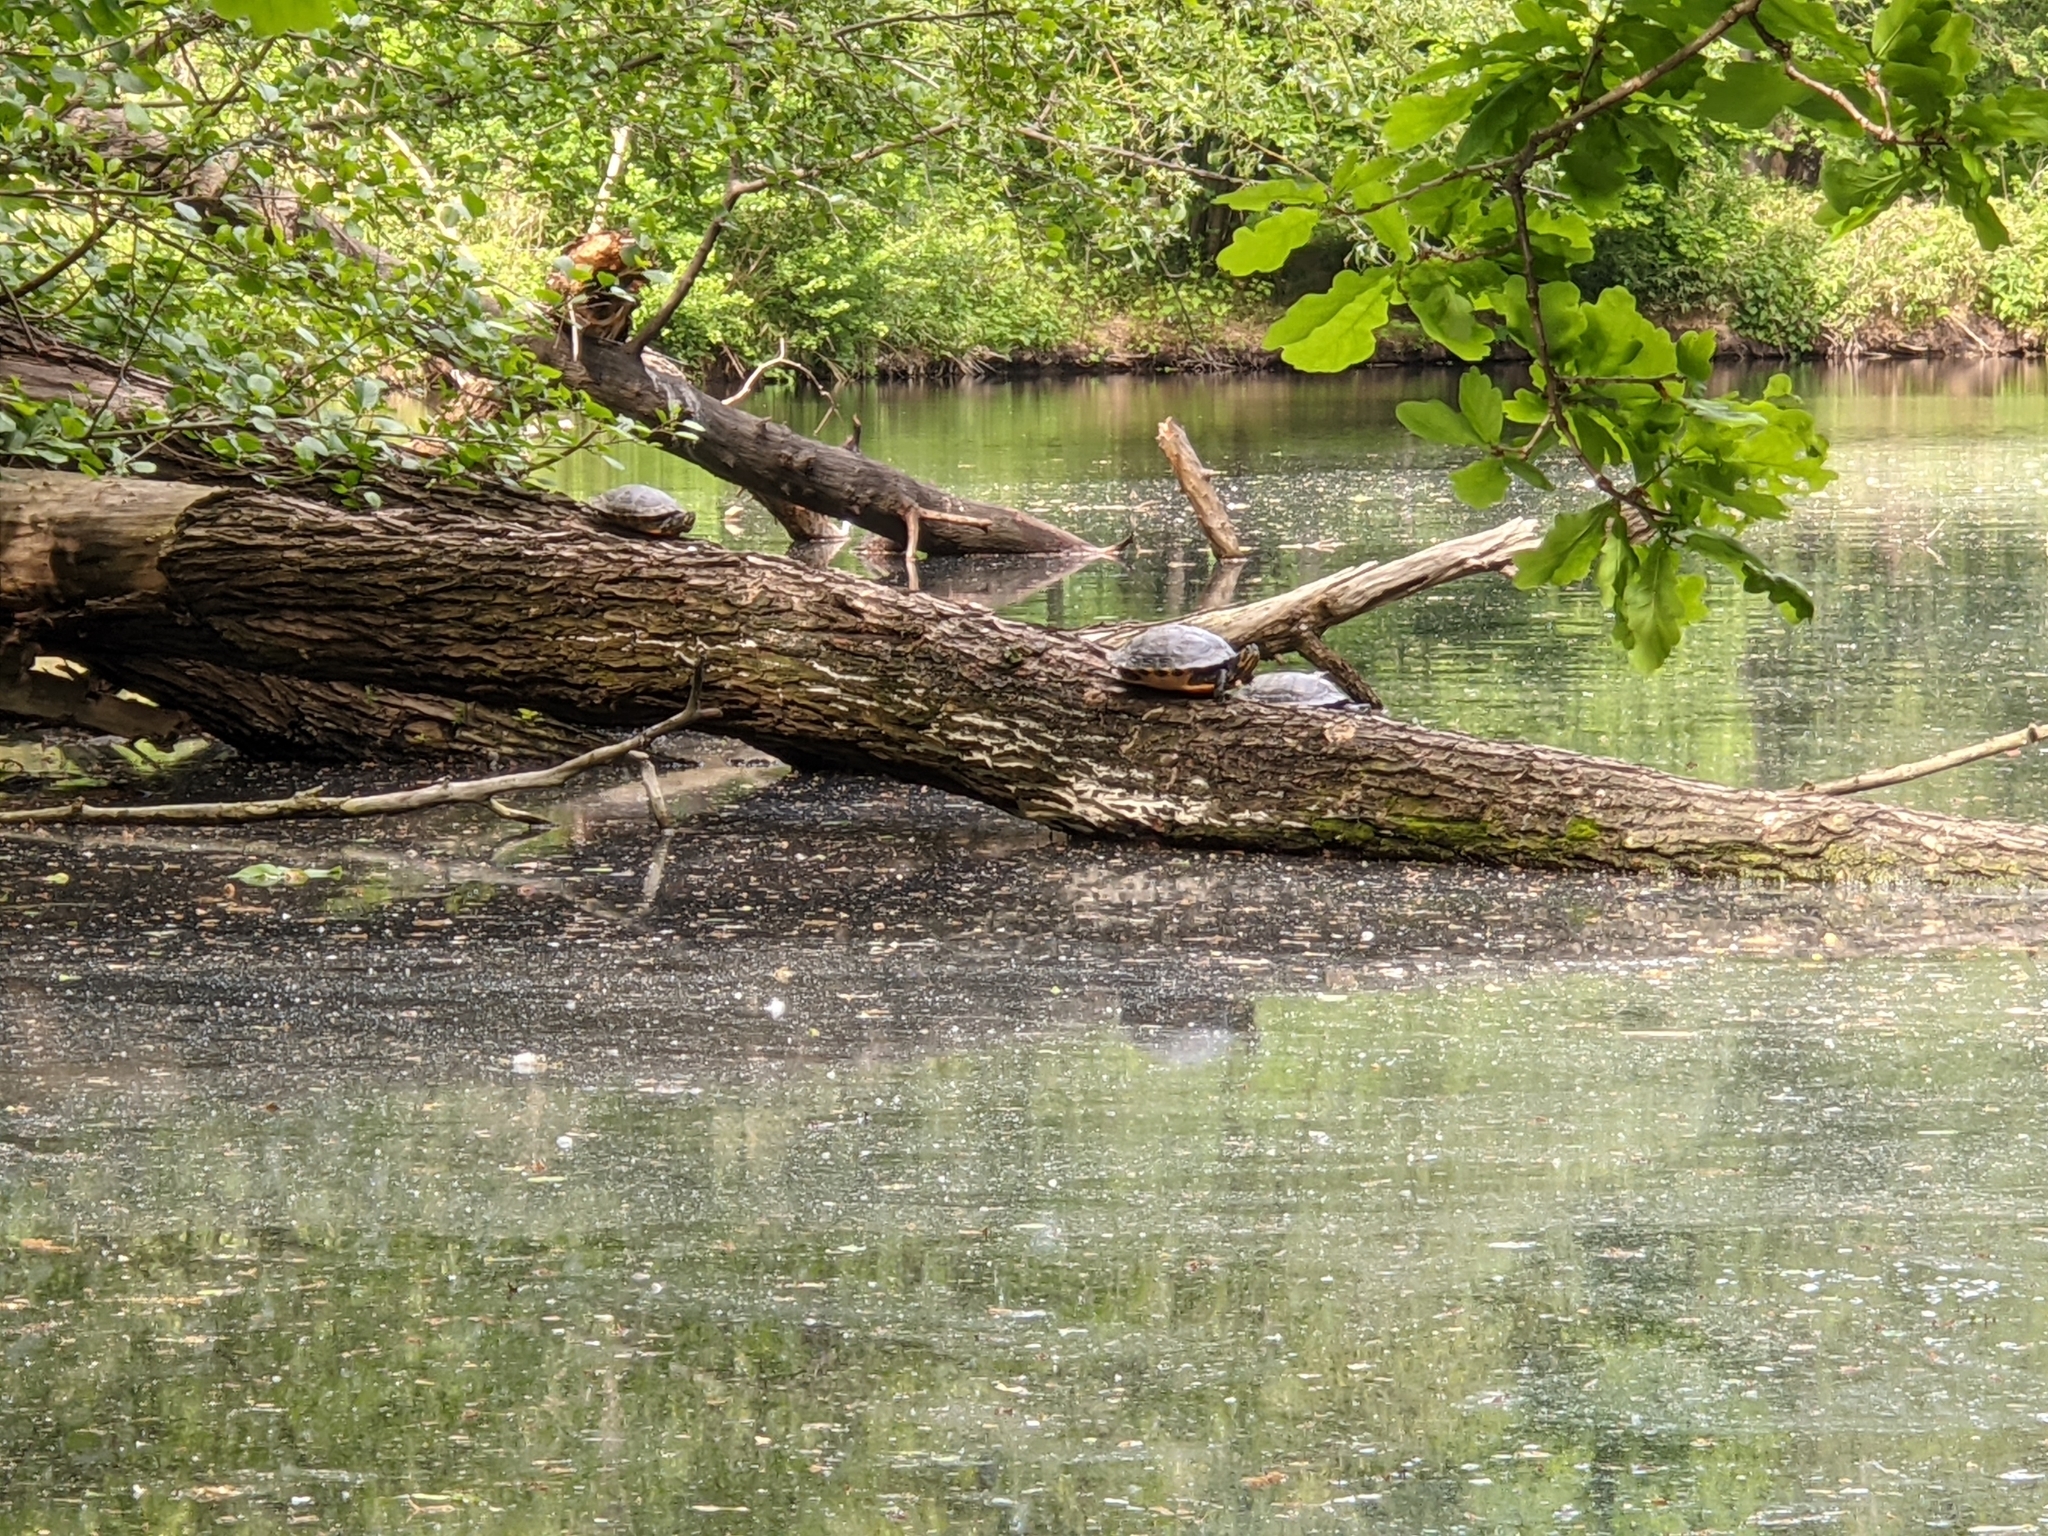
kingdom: Animalia
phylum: Chordata
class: Testudines
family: Emydidae
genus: Trachemys
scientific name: Trachemys scripta
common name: Slider
